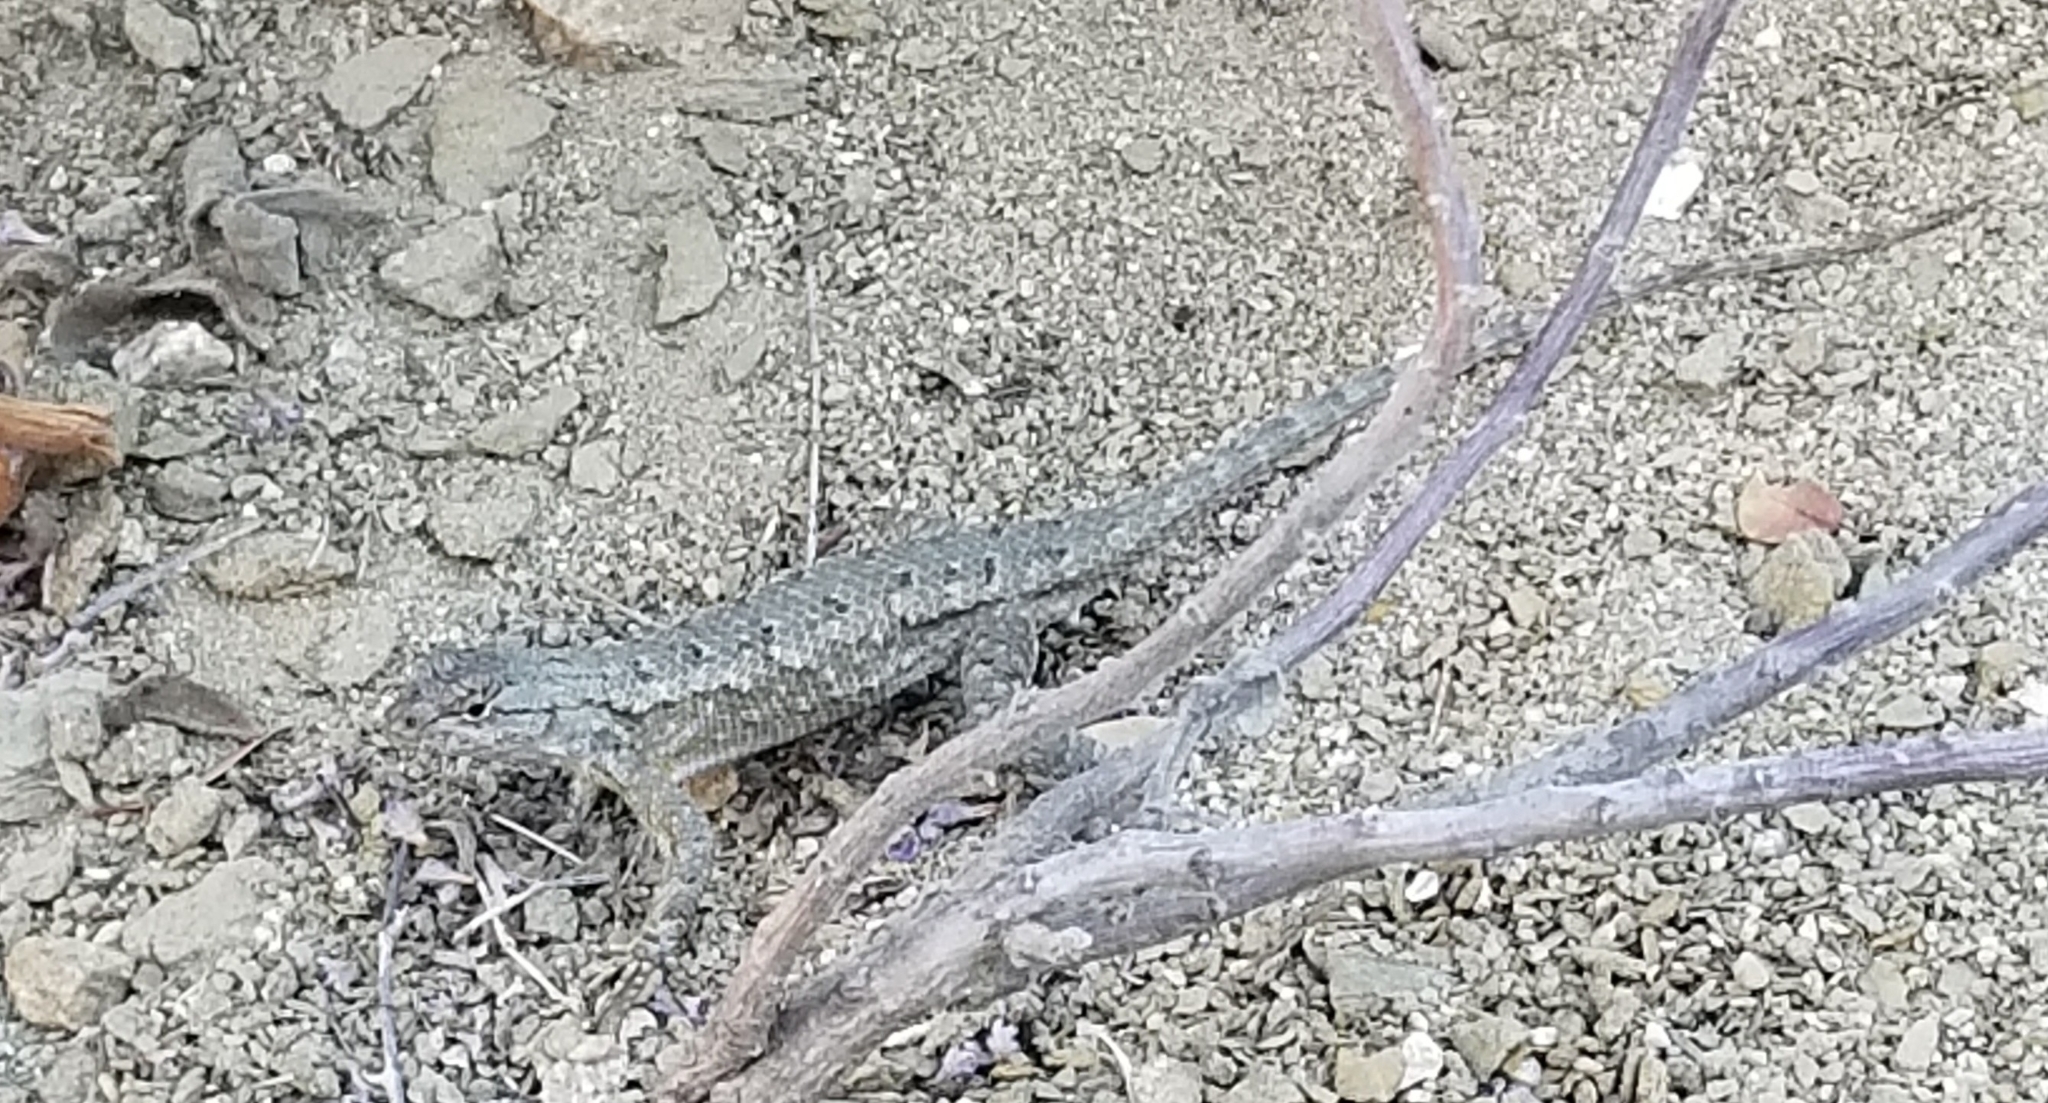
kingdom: Animalia
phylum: Chordata
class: Squamata
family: Phrynosomatidae
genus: Sceloporus
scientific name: Sceloporus occidentalis
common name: Western fence lizard
